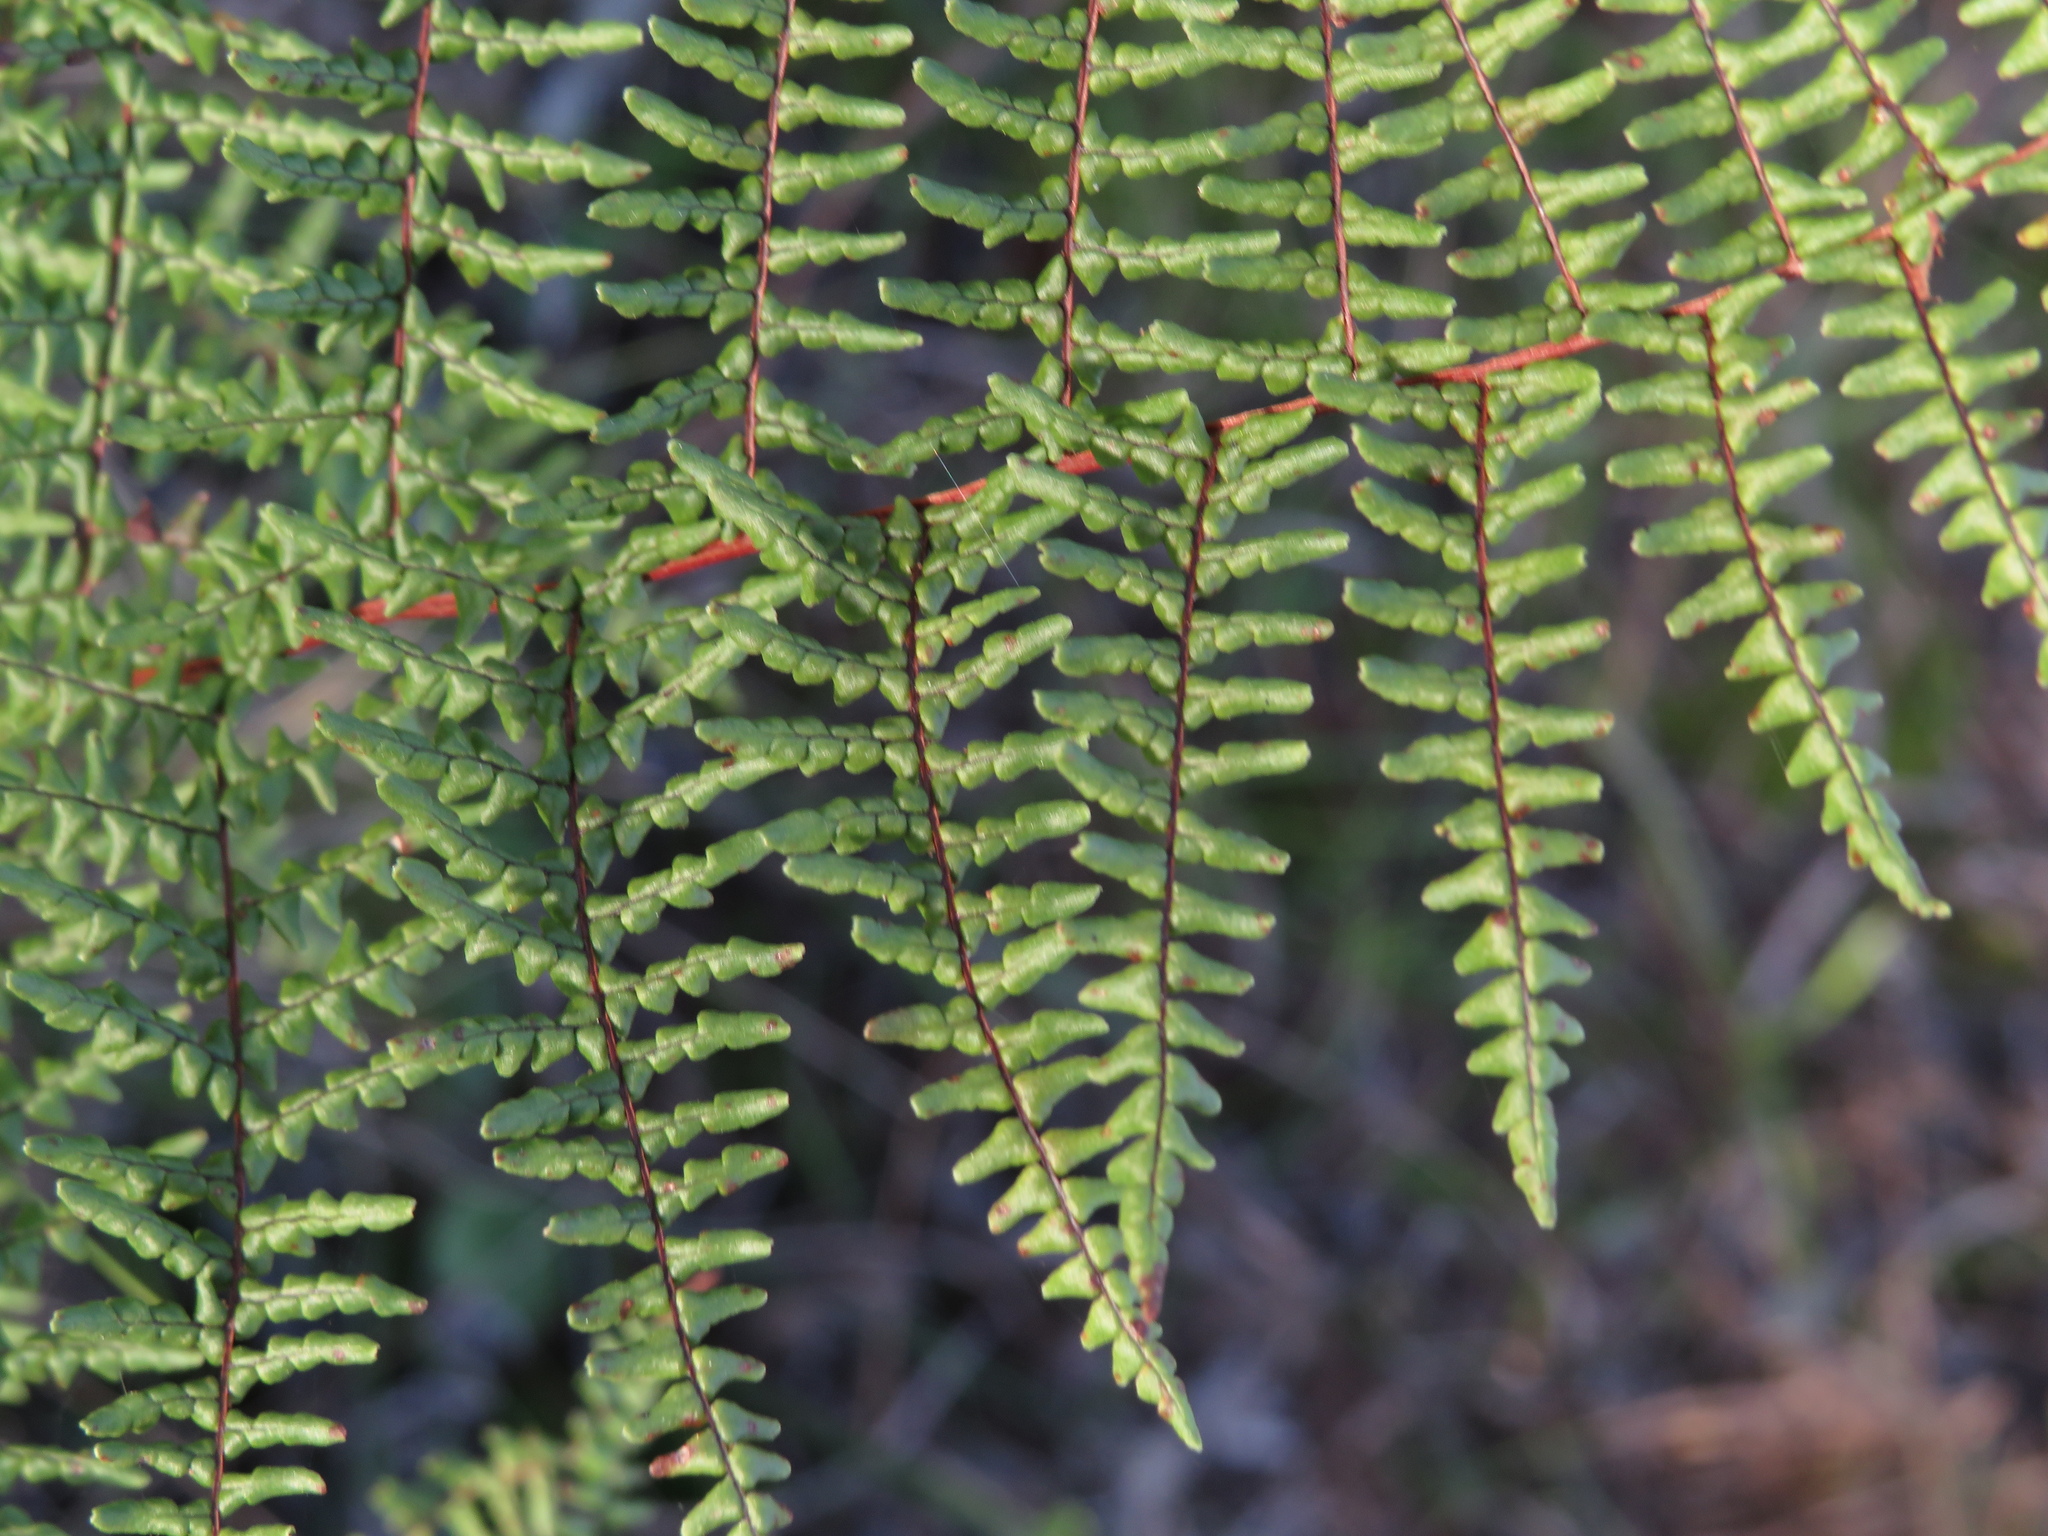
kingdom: Plantae
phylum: Tracheophyta
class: Polypodiopsida
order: Polypodiales
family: Pteridaceae
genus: Adiantopsis
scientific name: Adiantopsis chlorophylla
